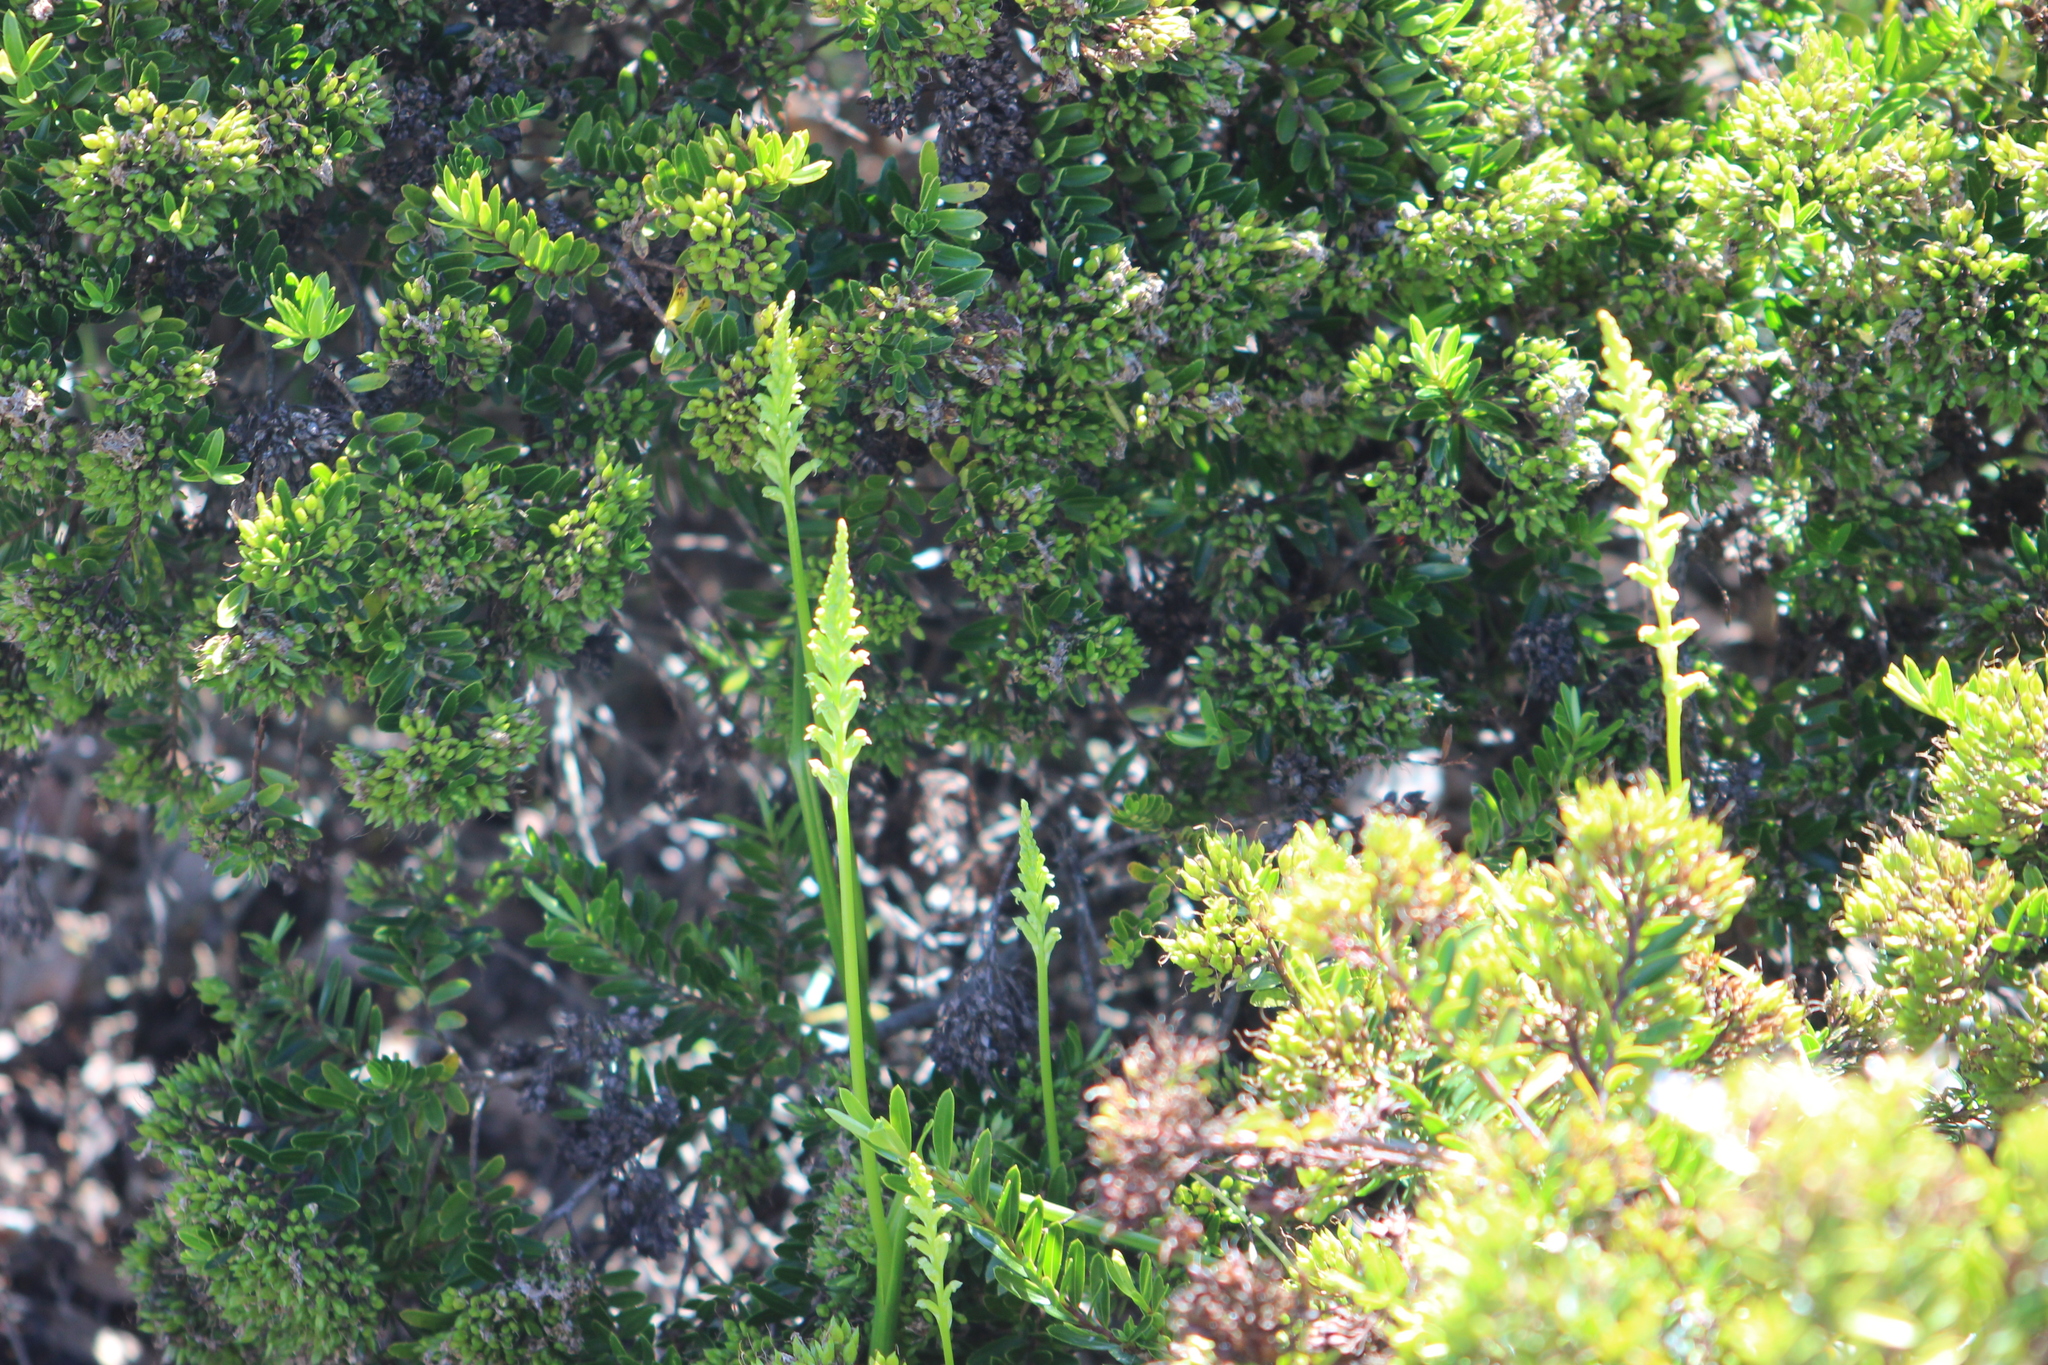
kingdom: Plantae
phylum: Tracheophyta
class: Liliopsida
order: Asparagales
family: Orchidaceae
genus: Microtis
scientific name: Microtis unifolia
